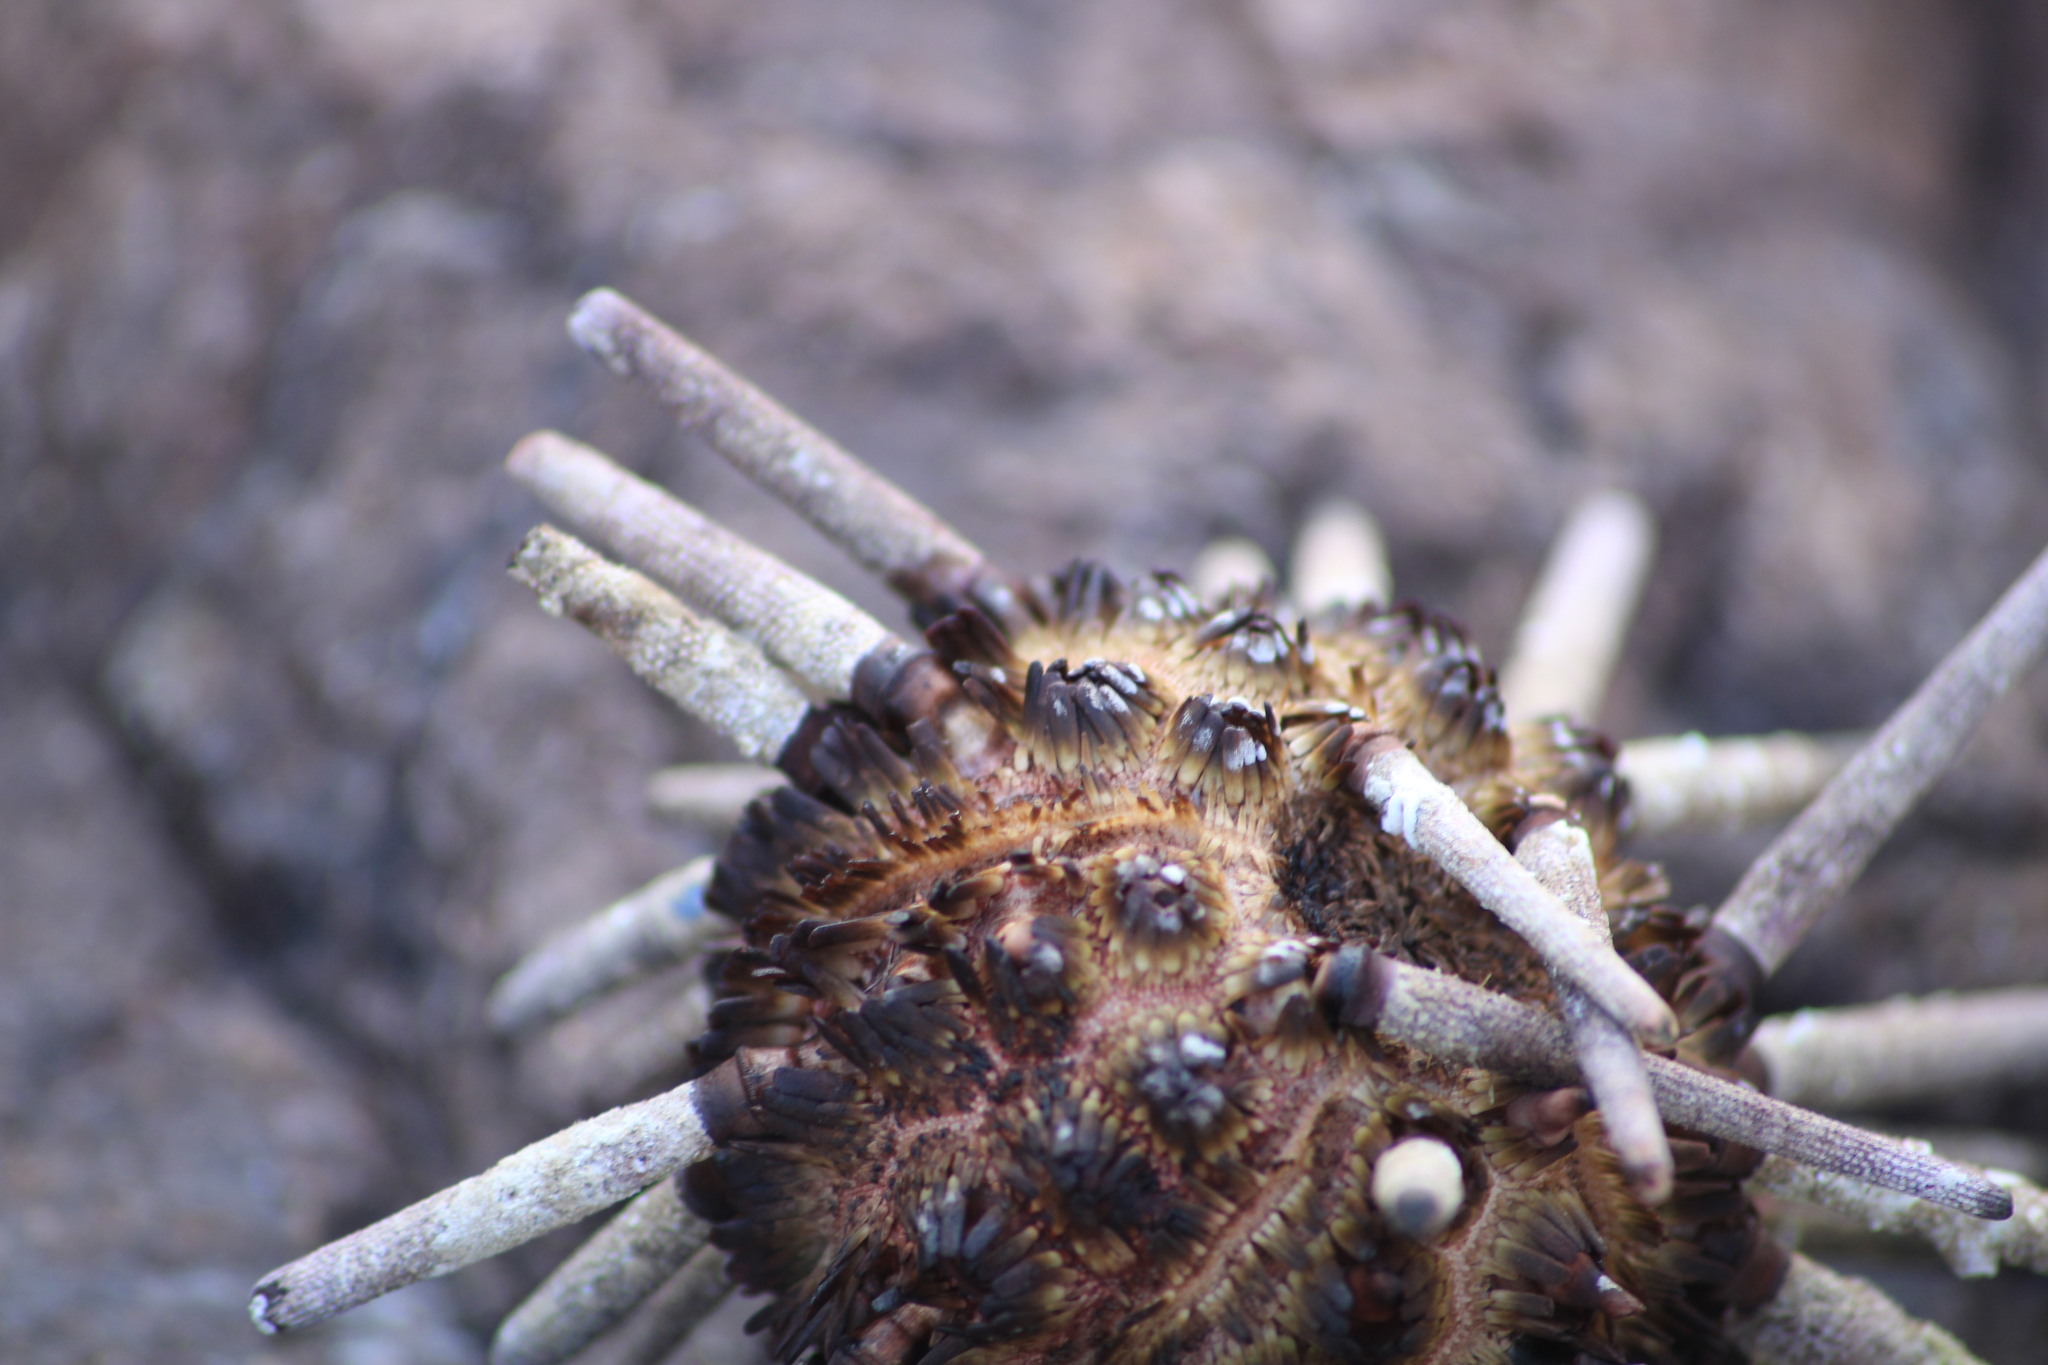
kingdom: Animalia
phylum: Echinodermata
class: Echinoidea
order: Cidaroida
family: Cidaridae
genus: Eucidaris
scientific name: Eucidaris thouarsii
